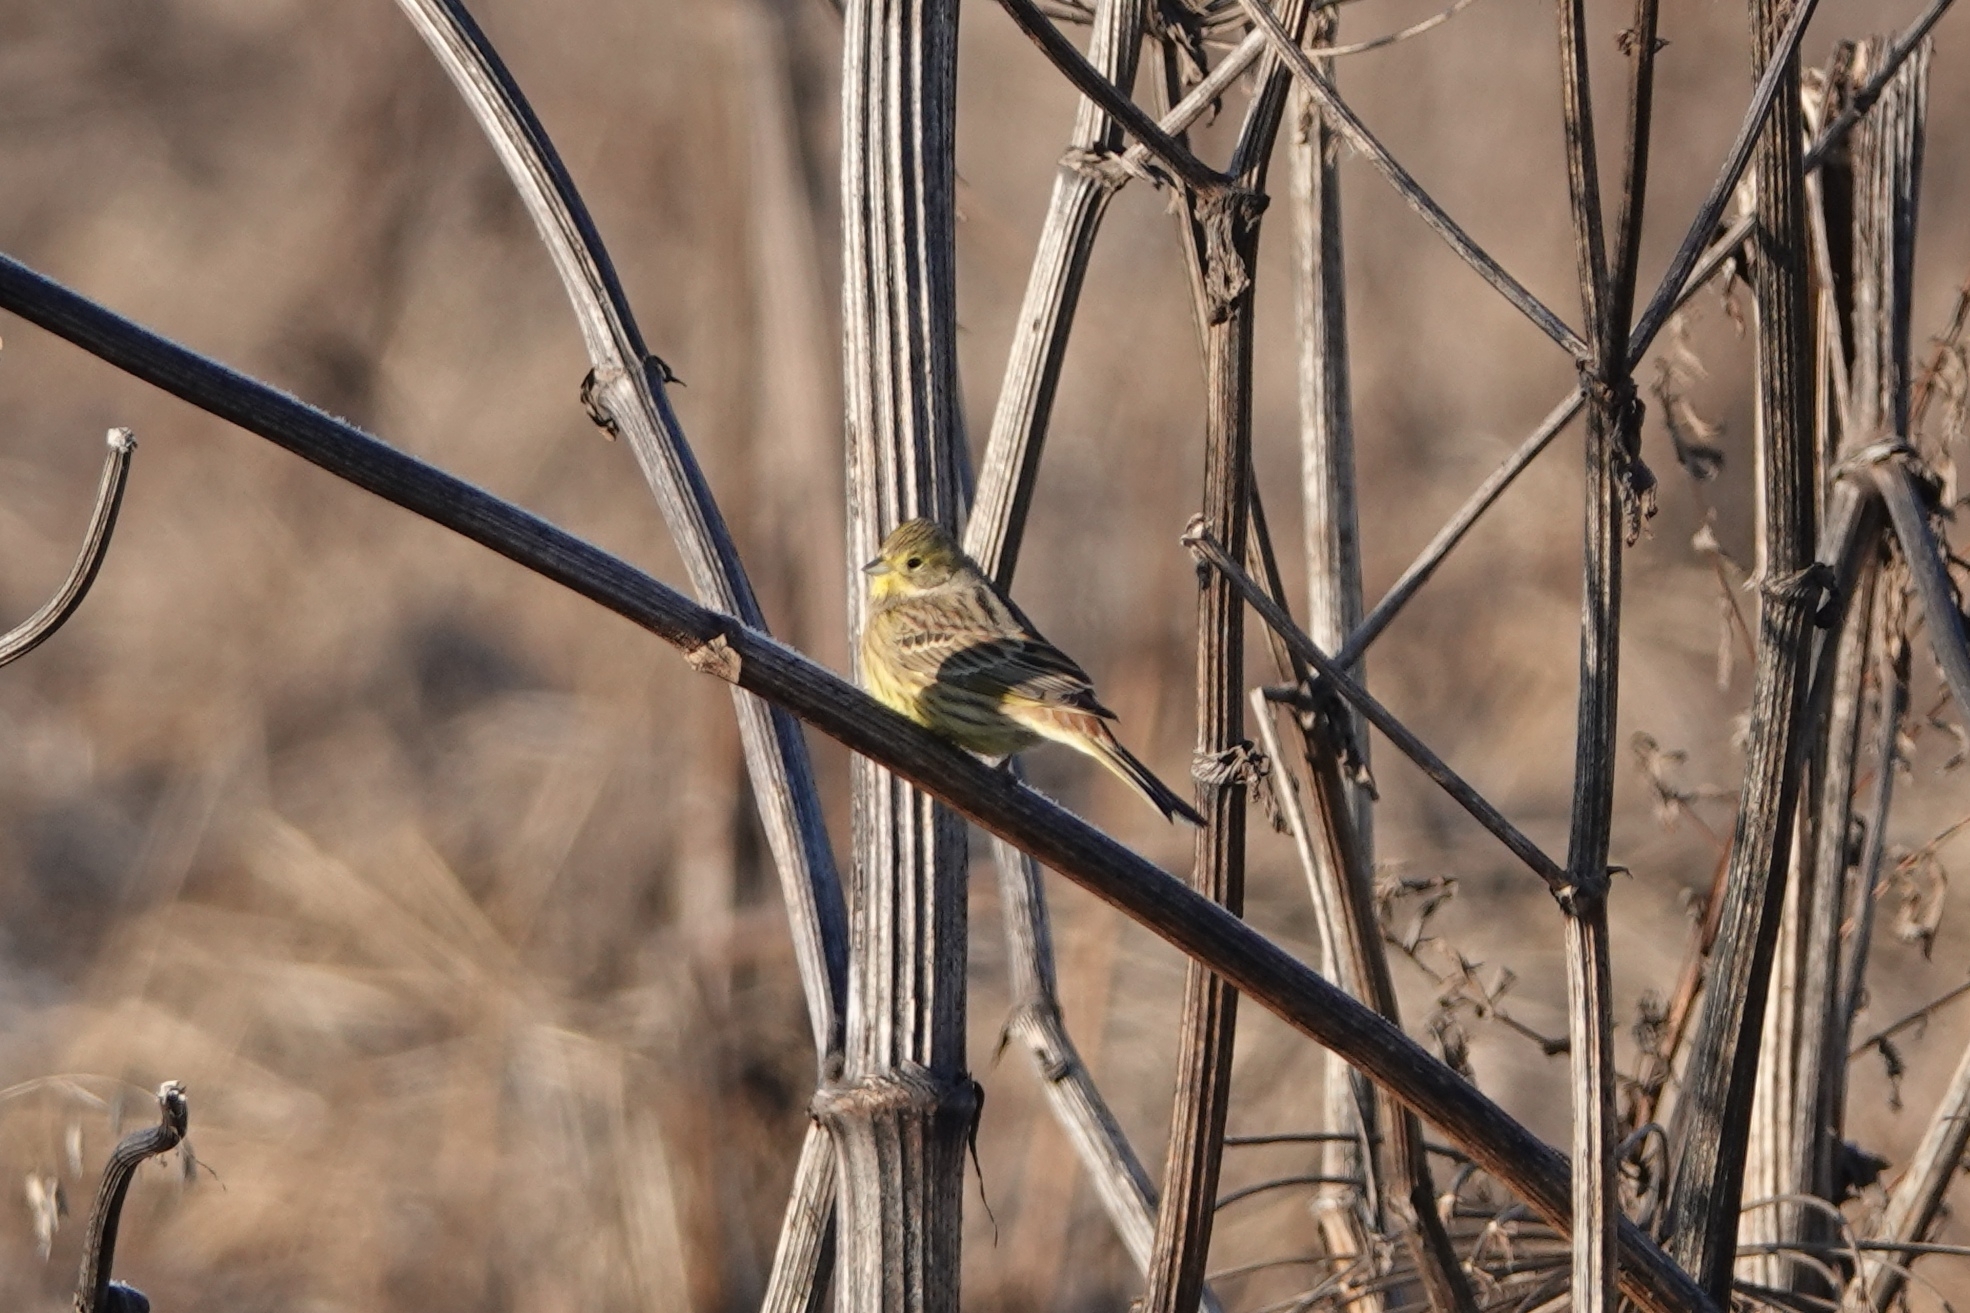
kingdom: Animalia
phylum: Chordata
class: Aves
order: Passeriformes
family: Emberizidae
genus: Emberiza
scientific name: Emberiza citrinella
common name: Yellowhammer
